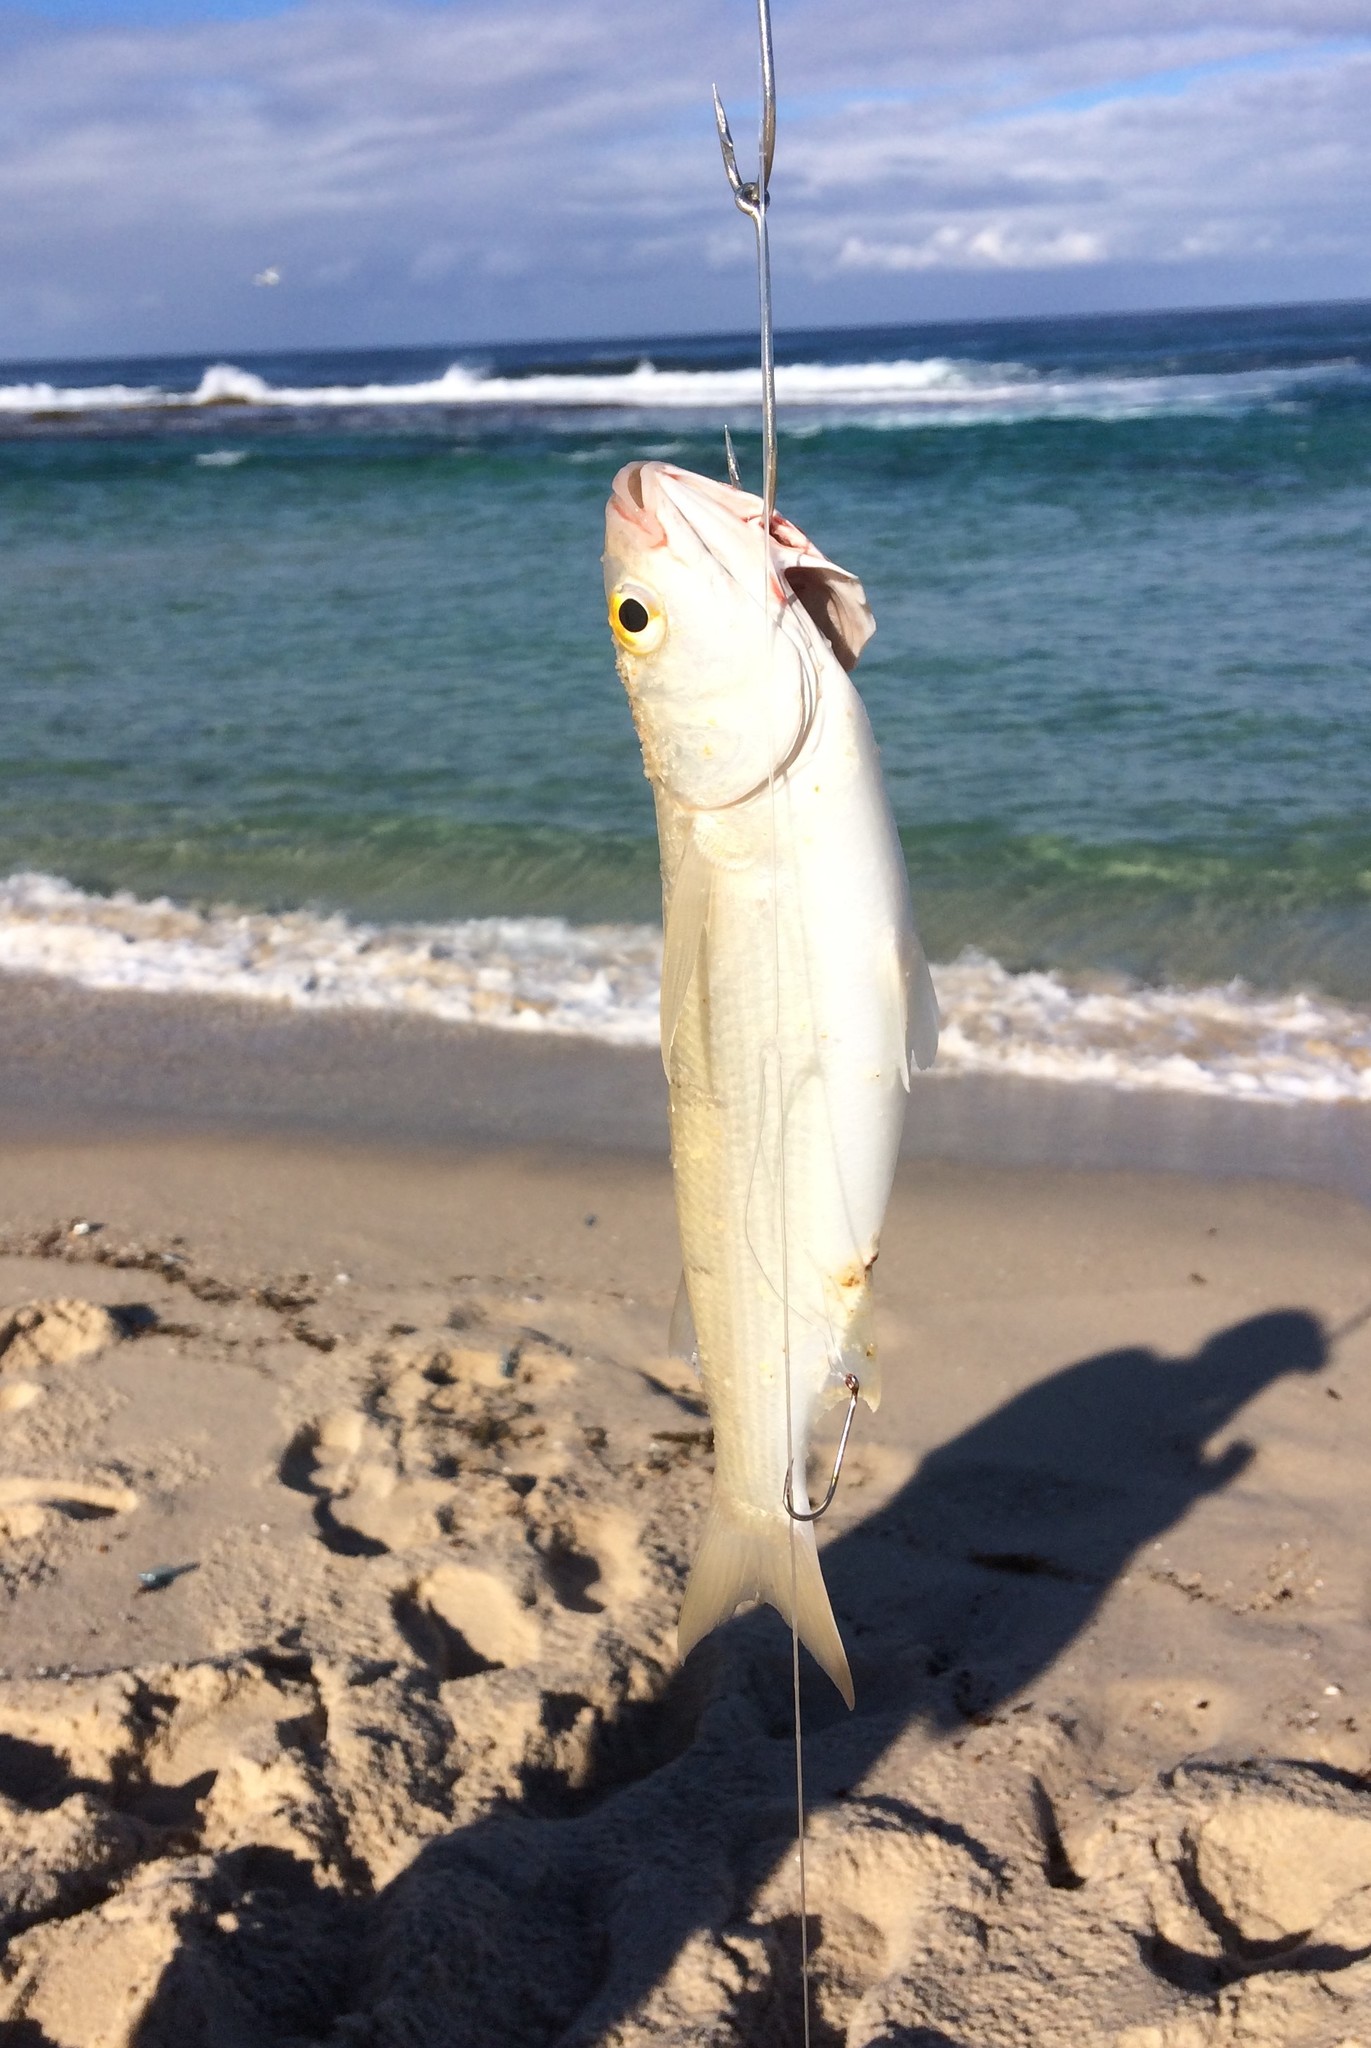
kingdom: Animalia
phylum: Chordata
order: Mugiliformes
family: Mugilidae
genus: Aldrichetta
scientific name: Aldrichetta forsteri
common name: Yellow-eye mullet
